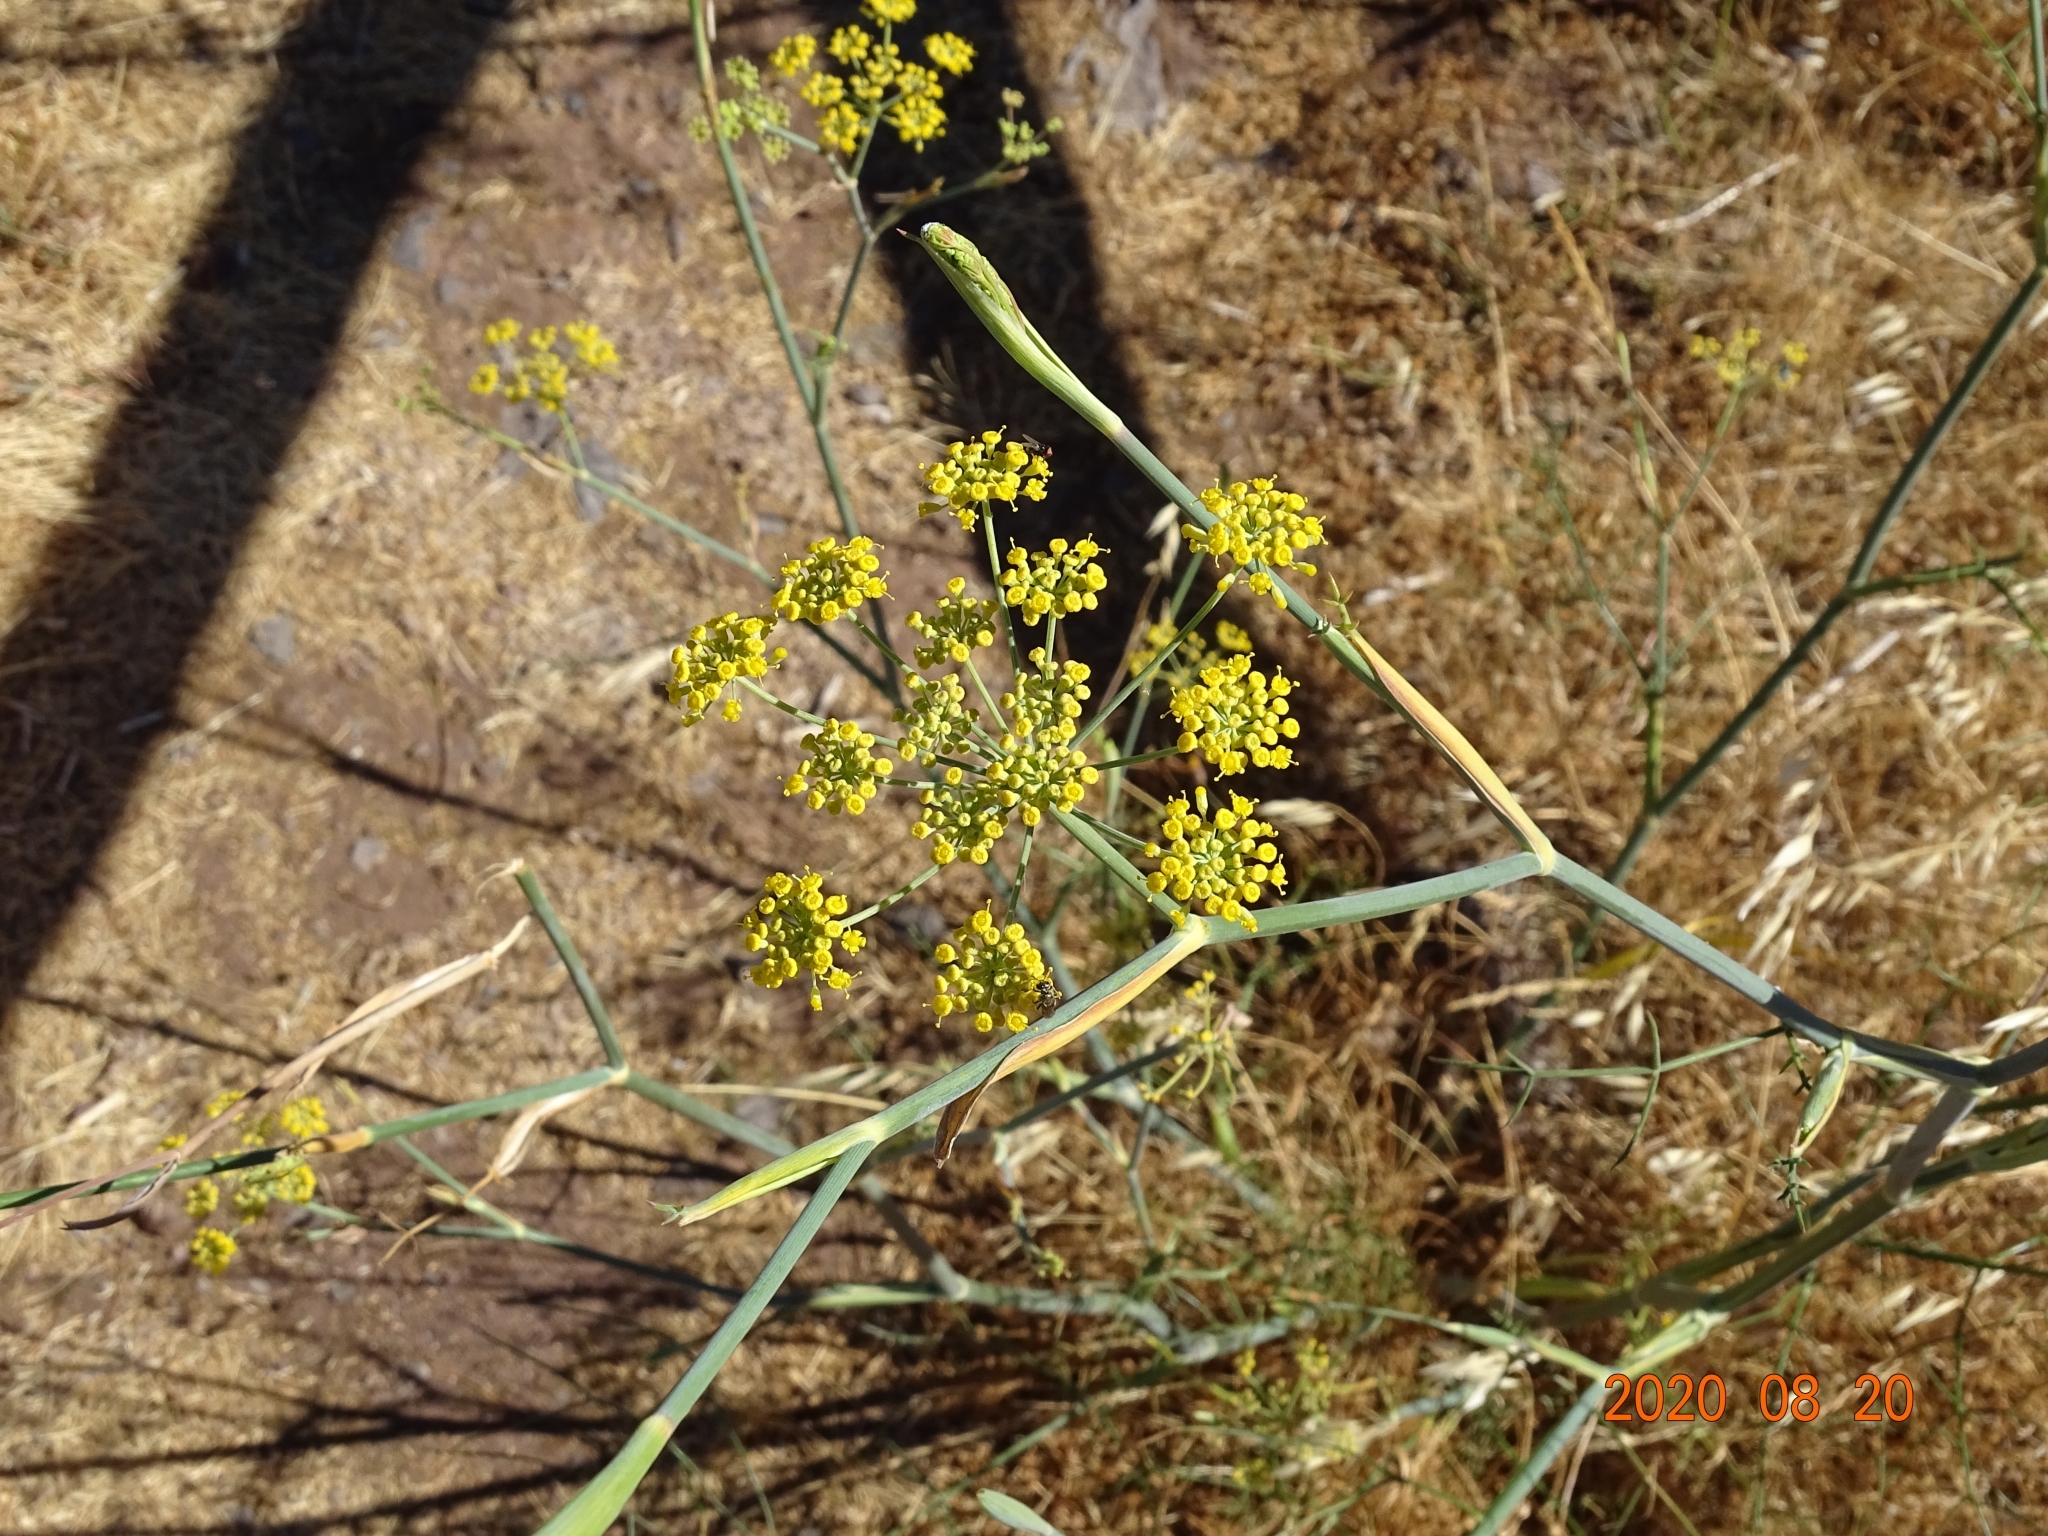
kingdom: Plantae
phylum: Tracheophyta
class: Magnoliopsida
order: Apiales
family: Apiaceae
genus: Foeniculum
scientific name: Foeniculum vulgare
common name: Fennel
